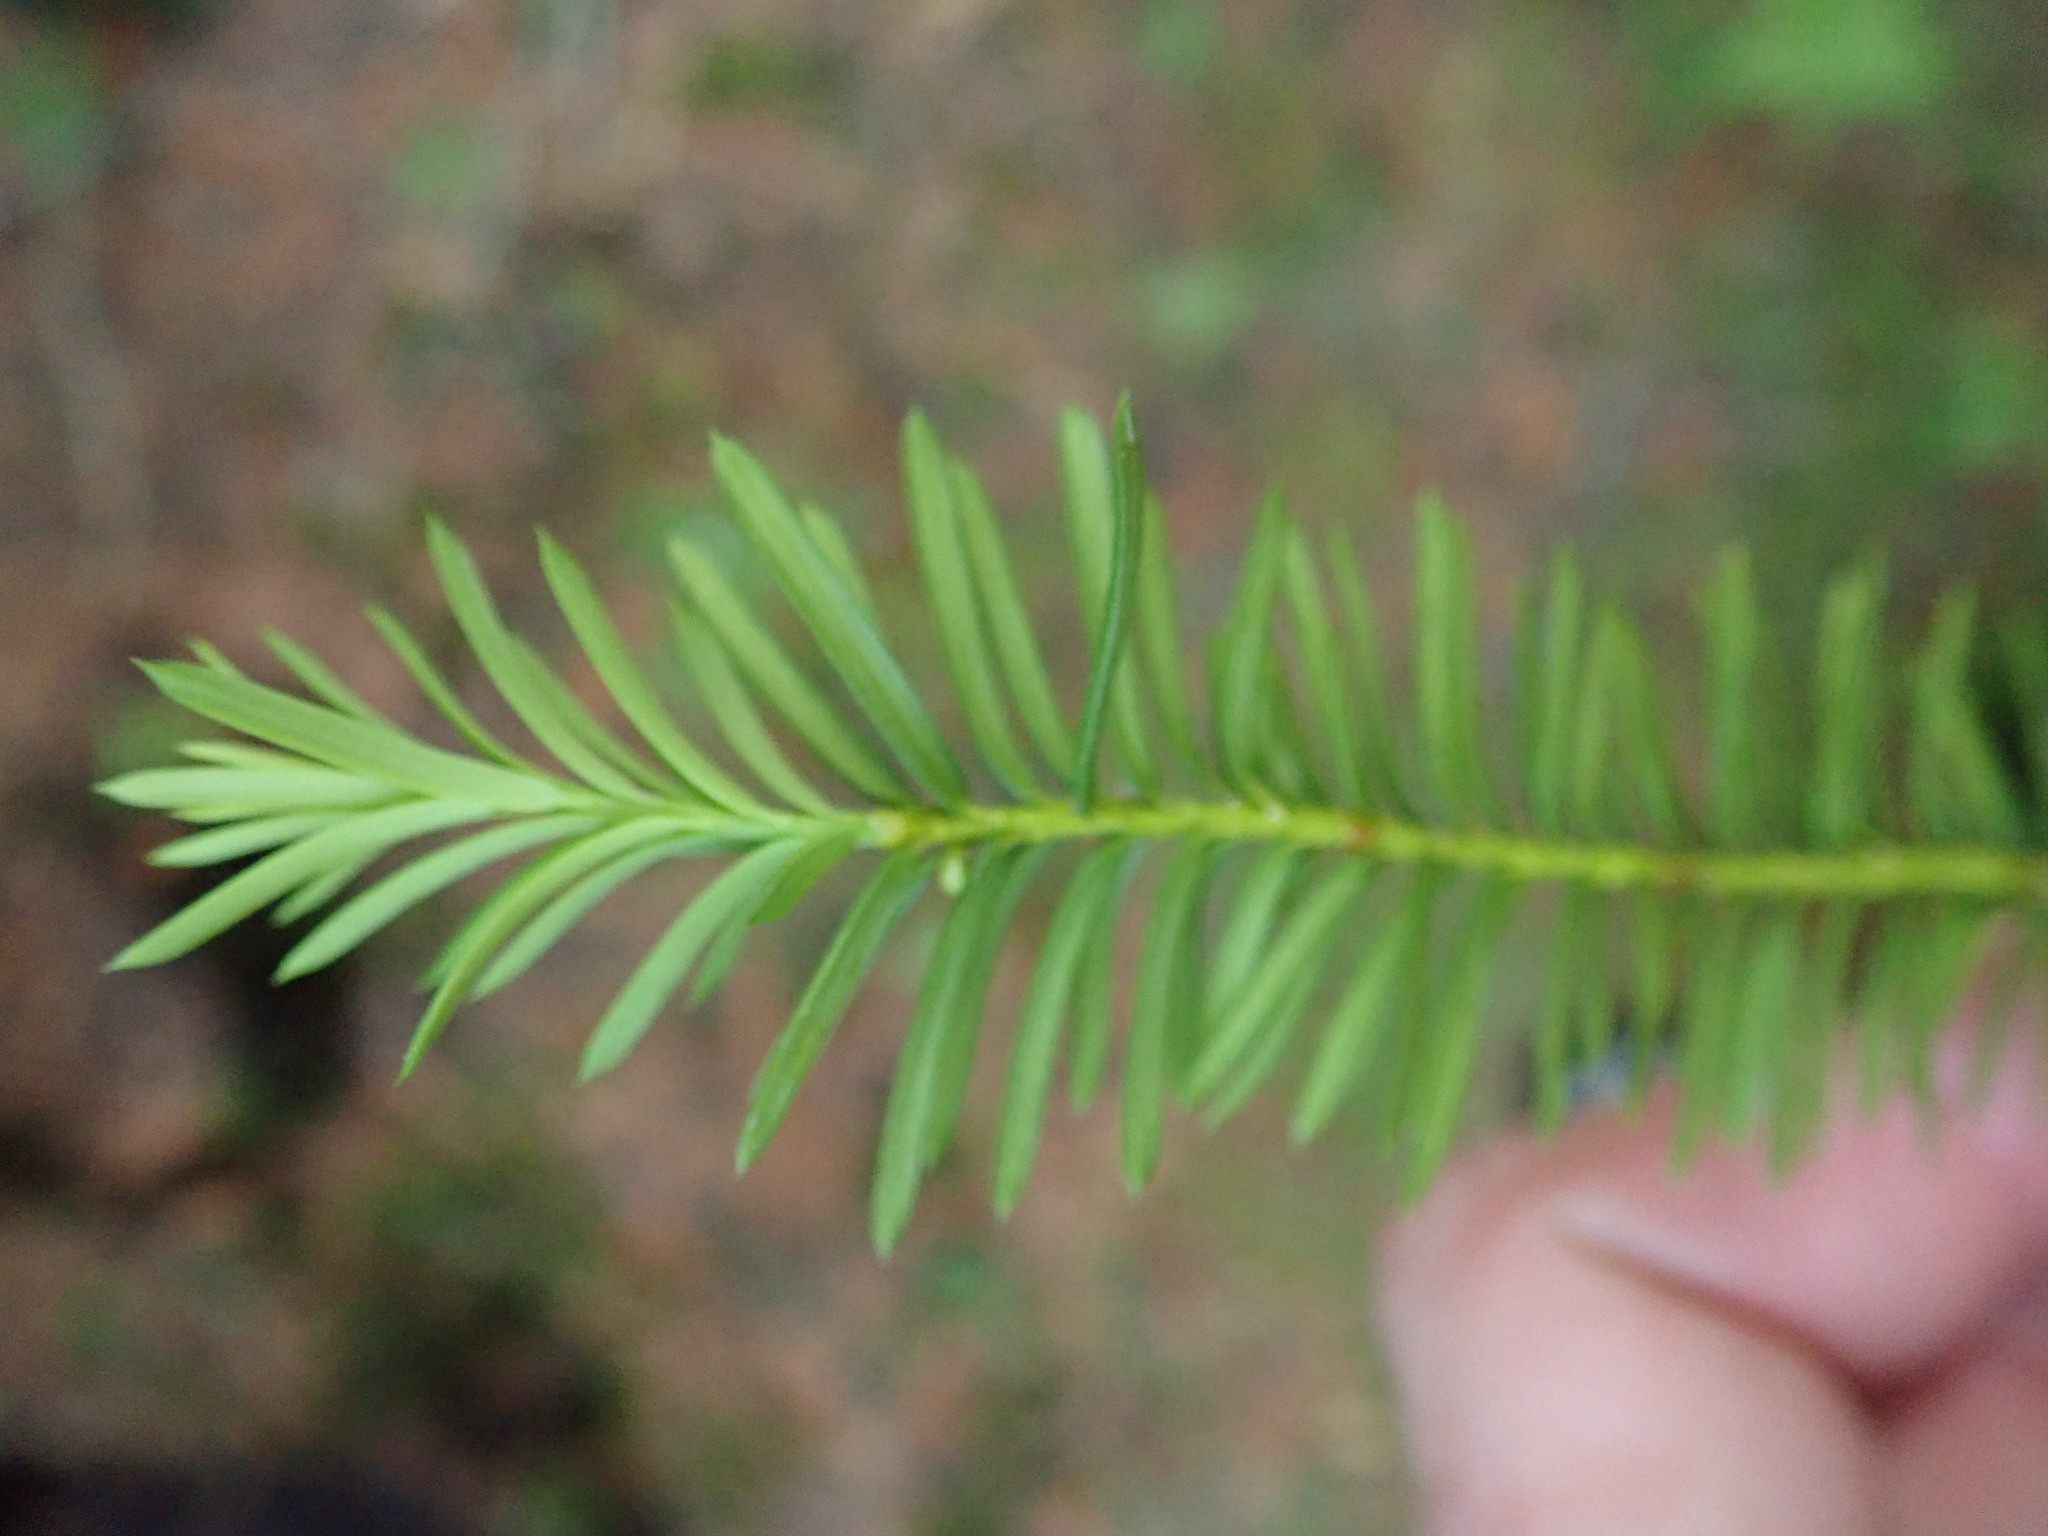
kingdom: Plantae
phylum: Tracheophyta
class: Pinopsida
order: Pinales
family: Taxaceae
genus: Taxus
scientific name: Taxus canadensis
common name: American yew
